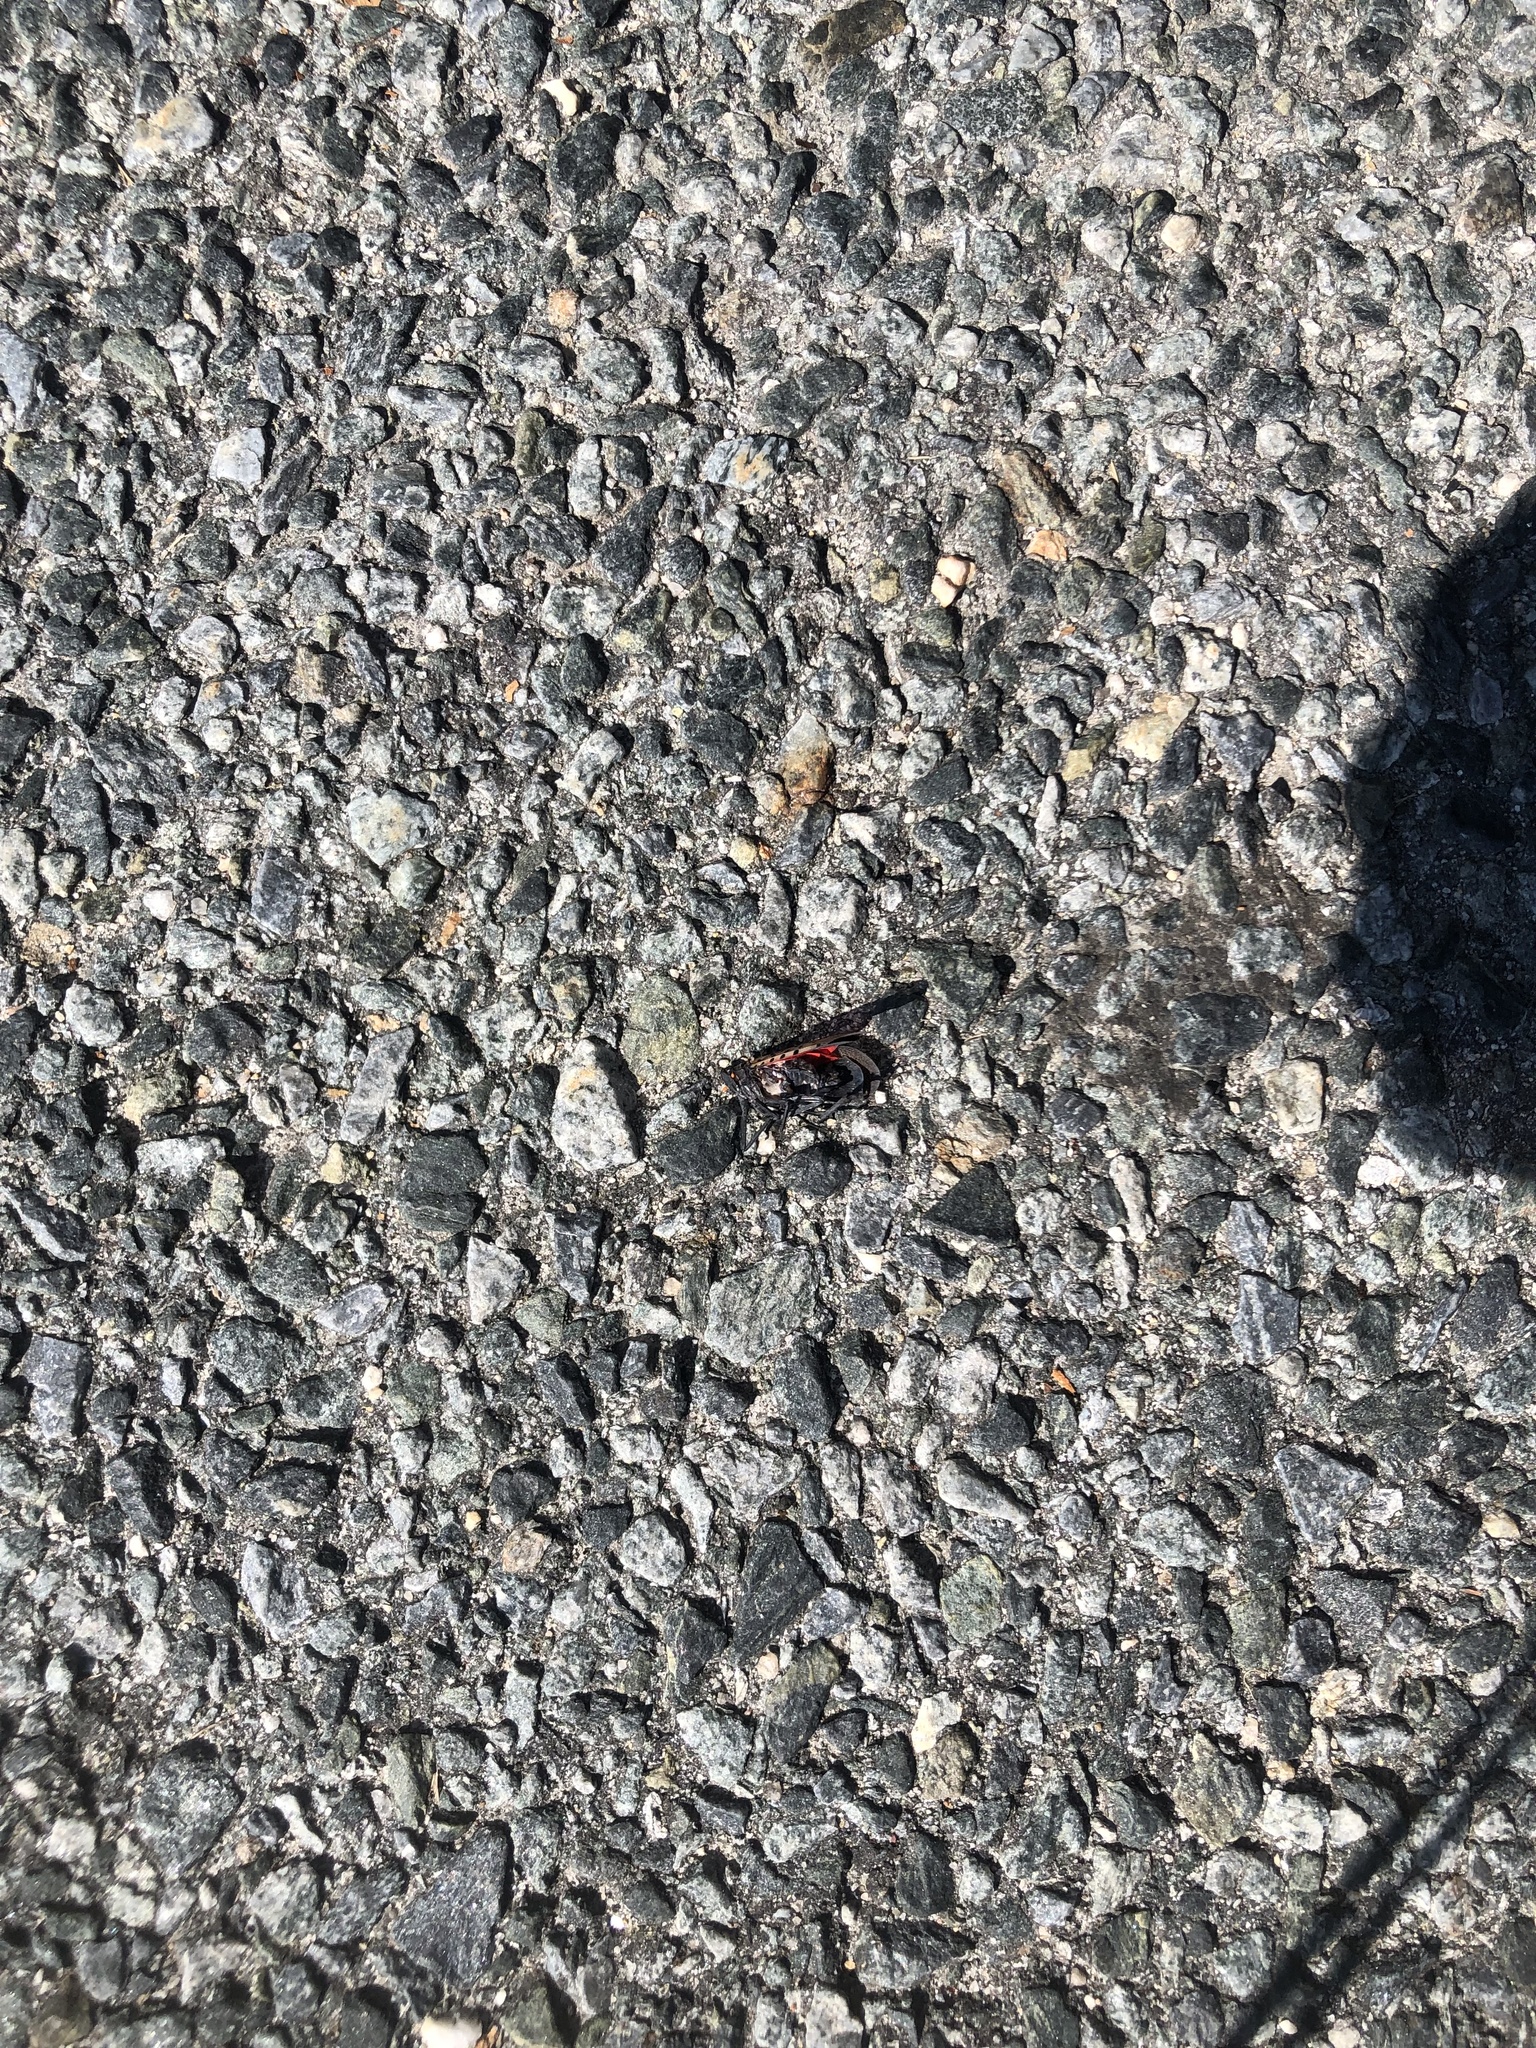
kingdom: Animalia
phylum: Arthropoda
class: Insecta
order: Hemiptera
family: Fulgoridae
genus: Lycorma
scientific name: Lycorma delicatula
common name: Spotted lanternfly
